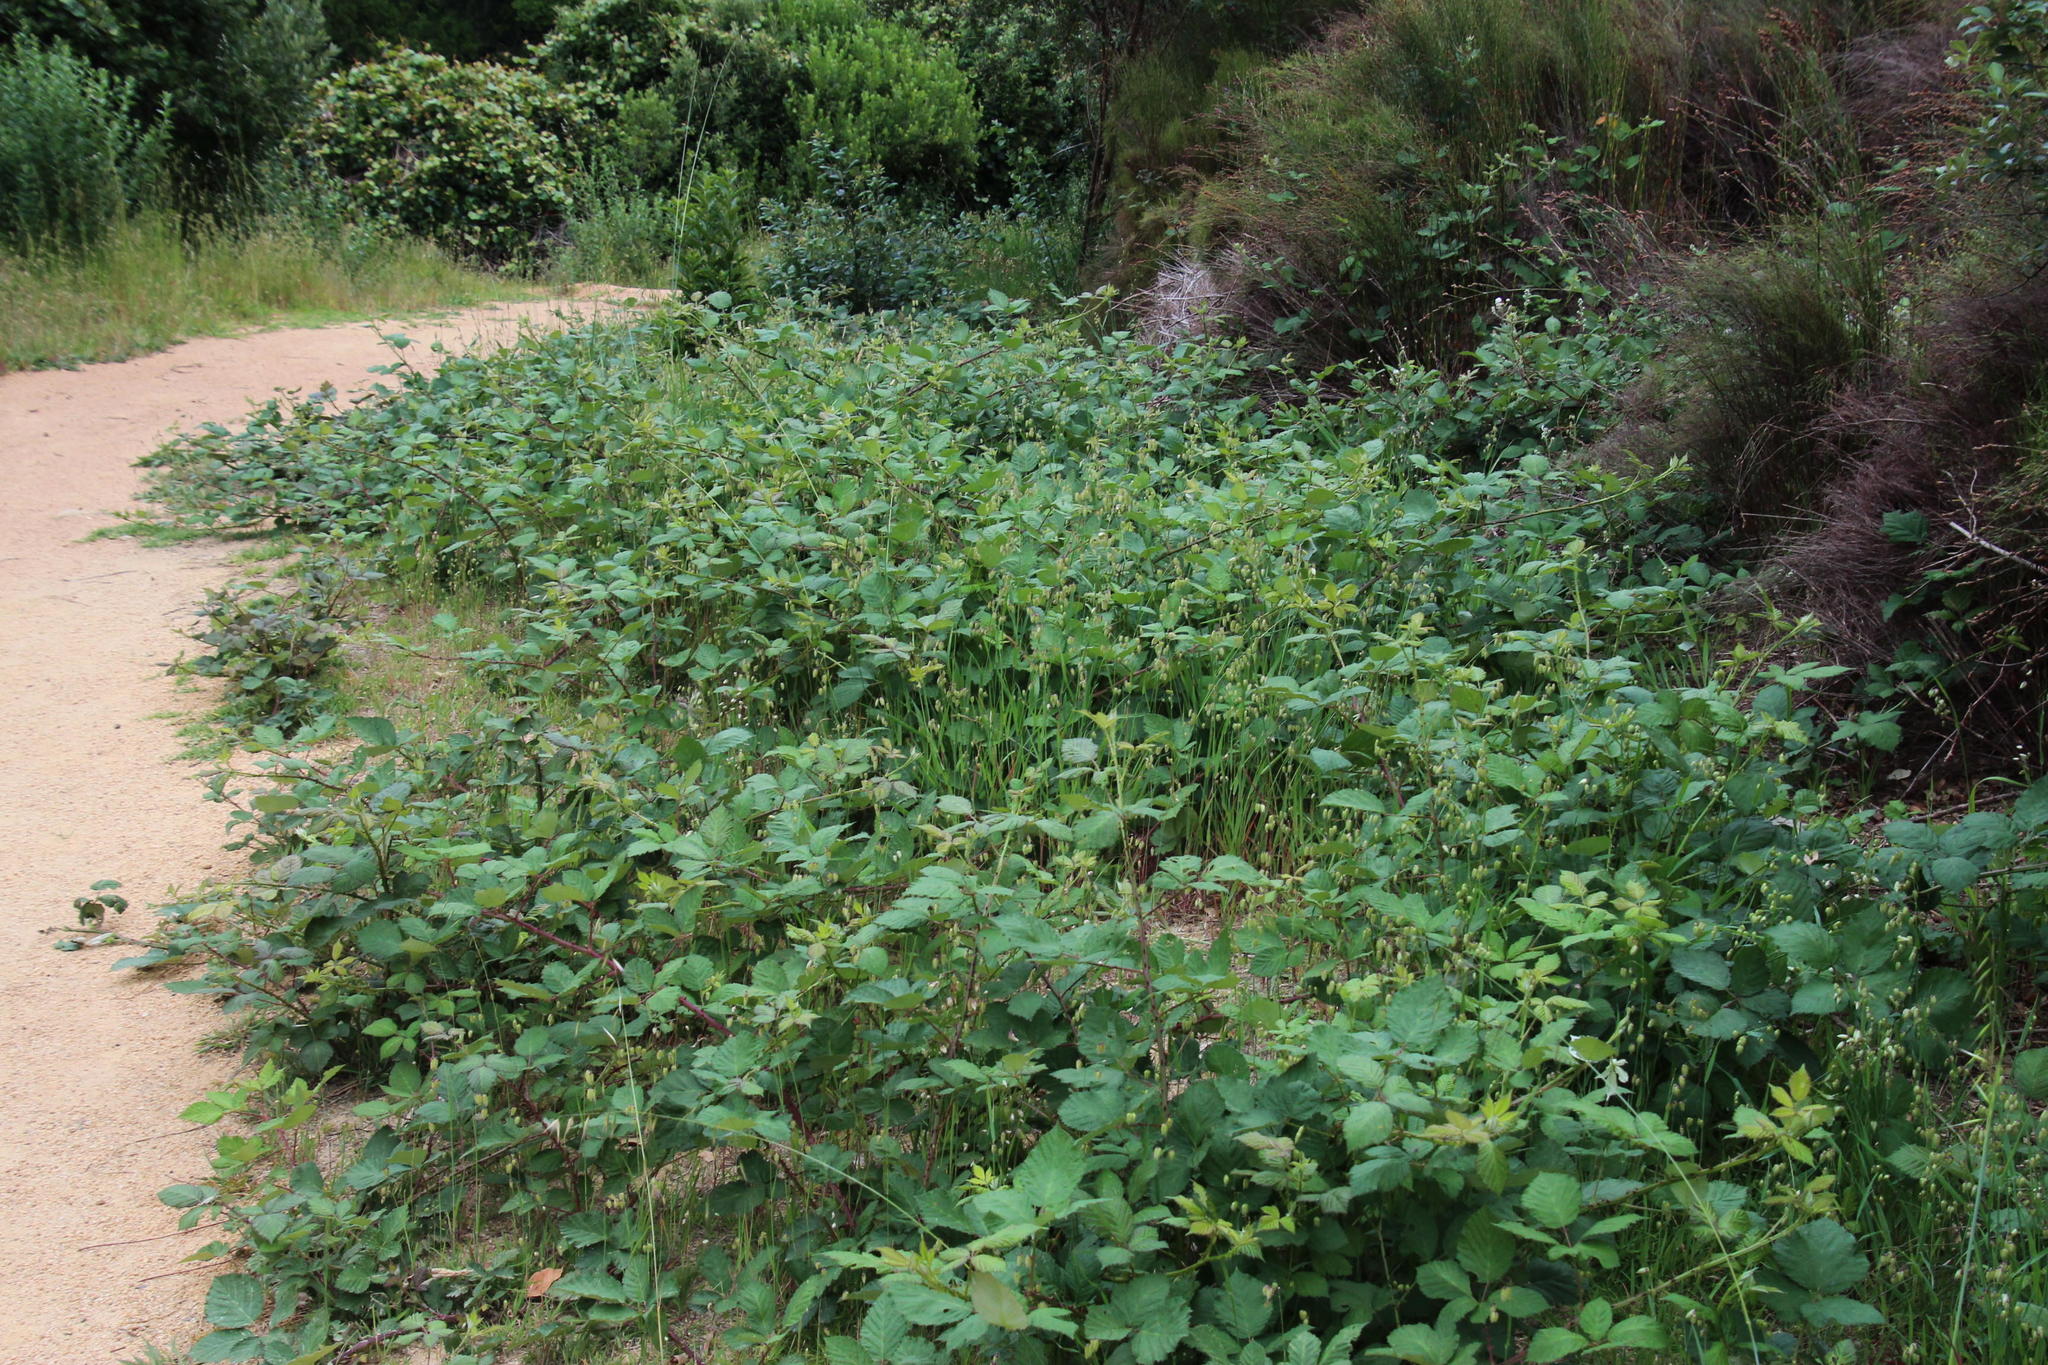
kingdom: Plantae
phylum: Tracheophyta
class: Magnoliopsida
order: Rosales
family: Rosaceae
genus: Rubus
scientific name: Rubus armeniacus
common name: Himalayan blackberry
